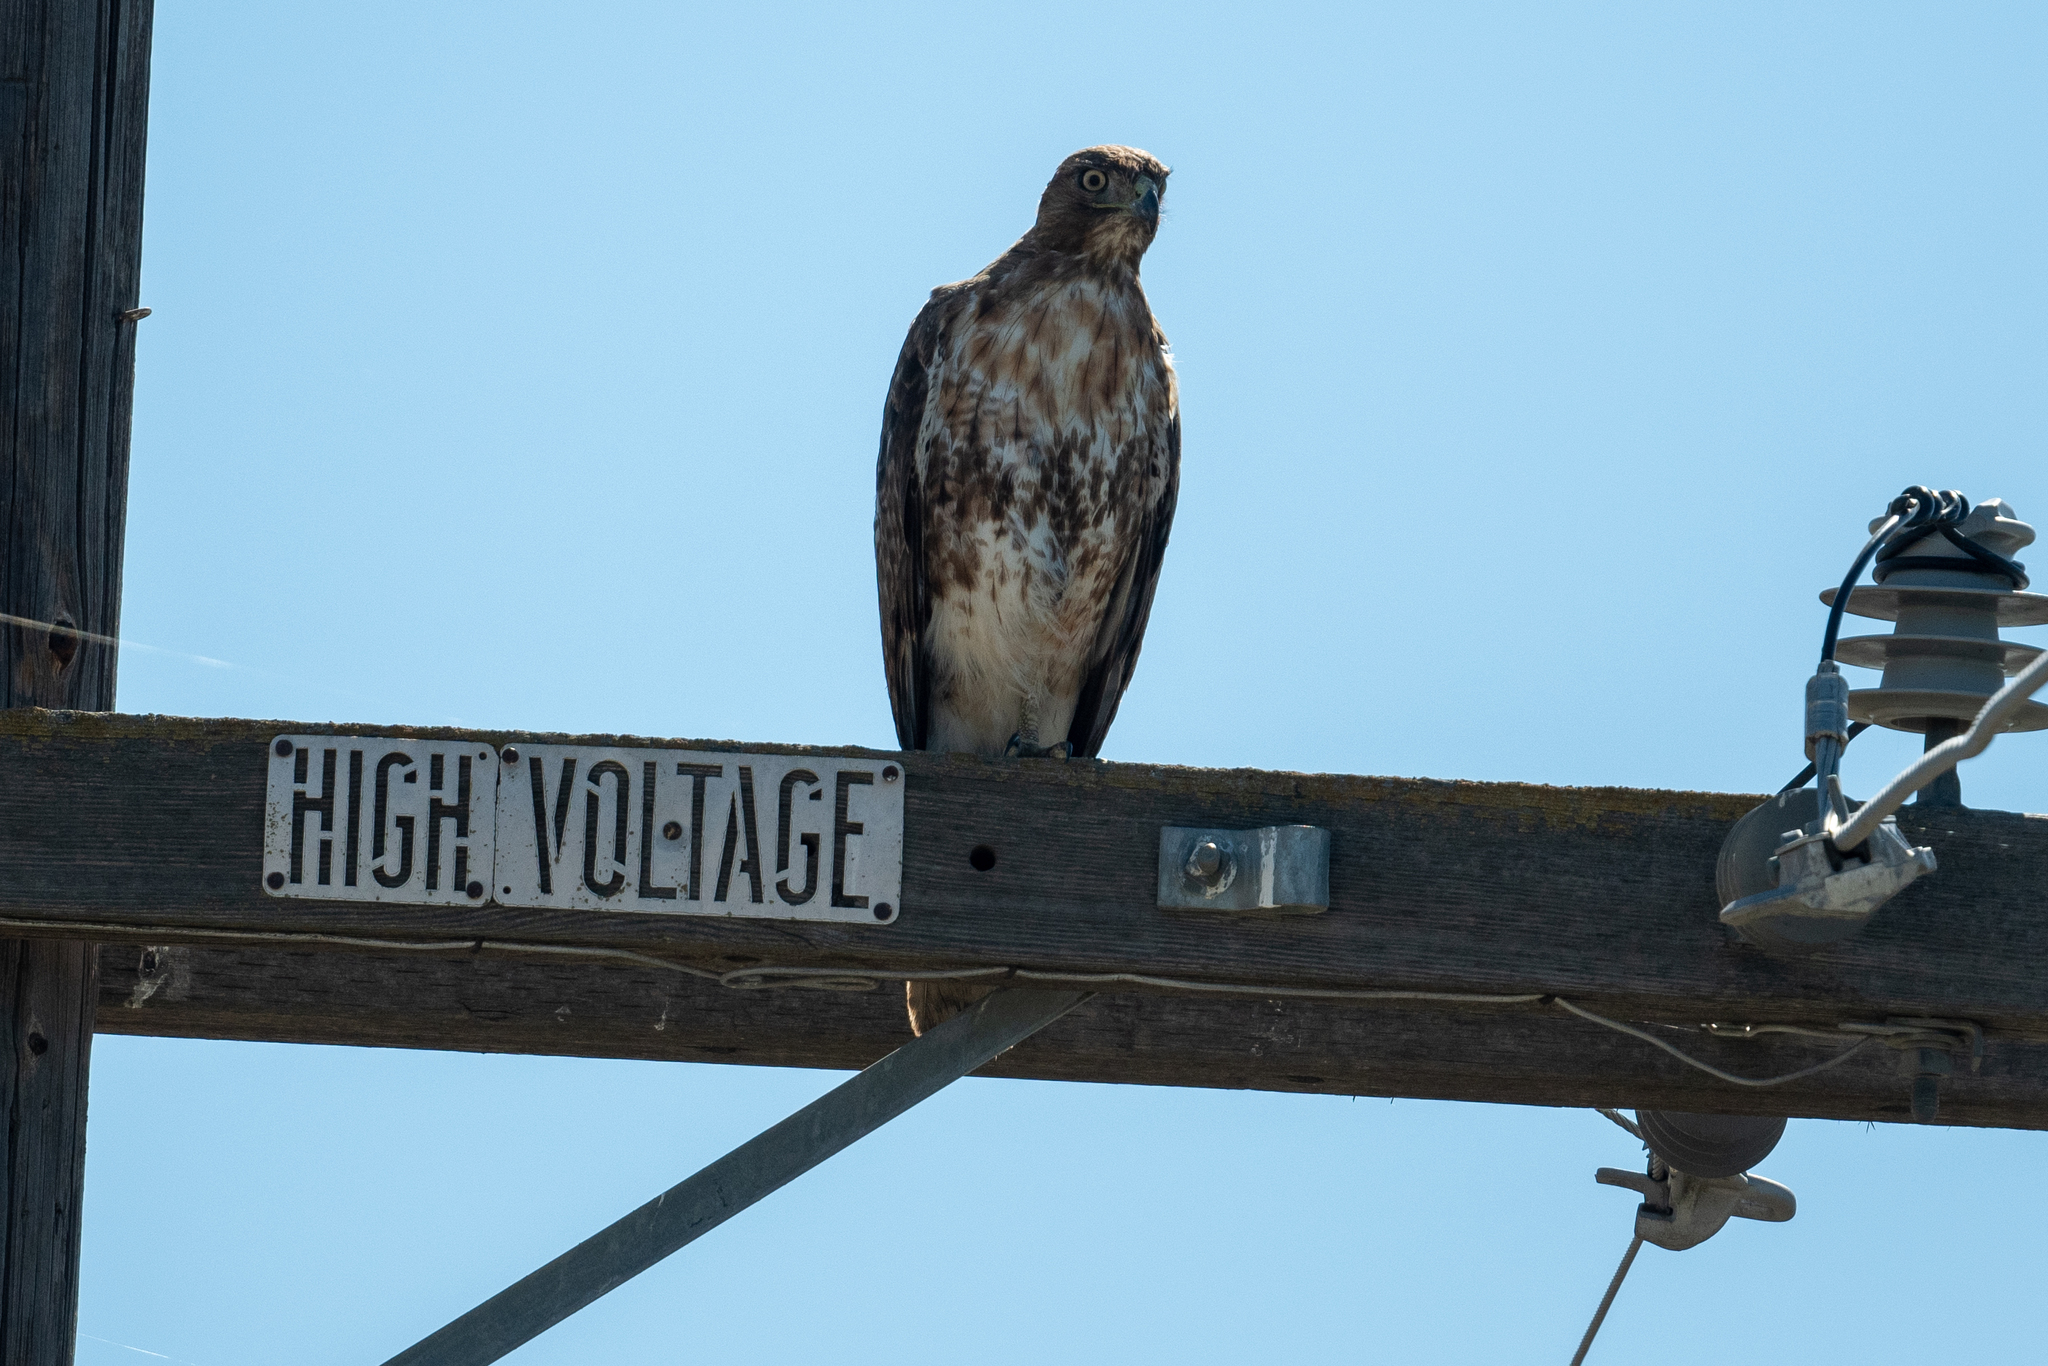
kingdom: Animalia
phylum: Chordata
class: Aves
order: Accipitriformes
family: Accipitridae
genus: Buteo
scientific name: Buteo jamaicensis
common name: Red-tailed hawk
